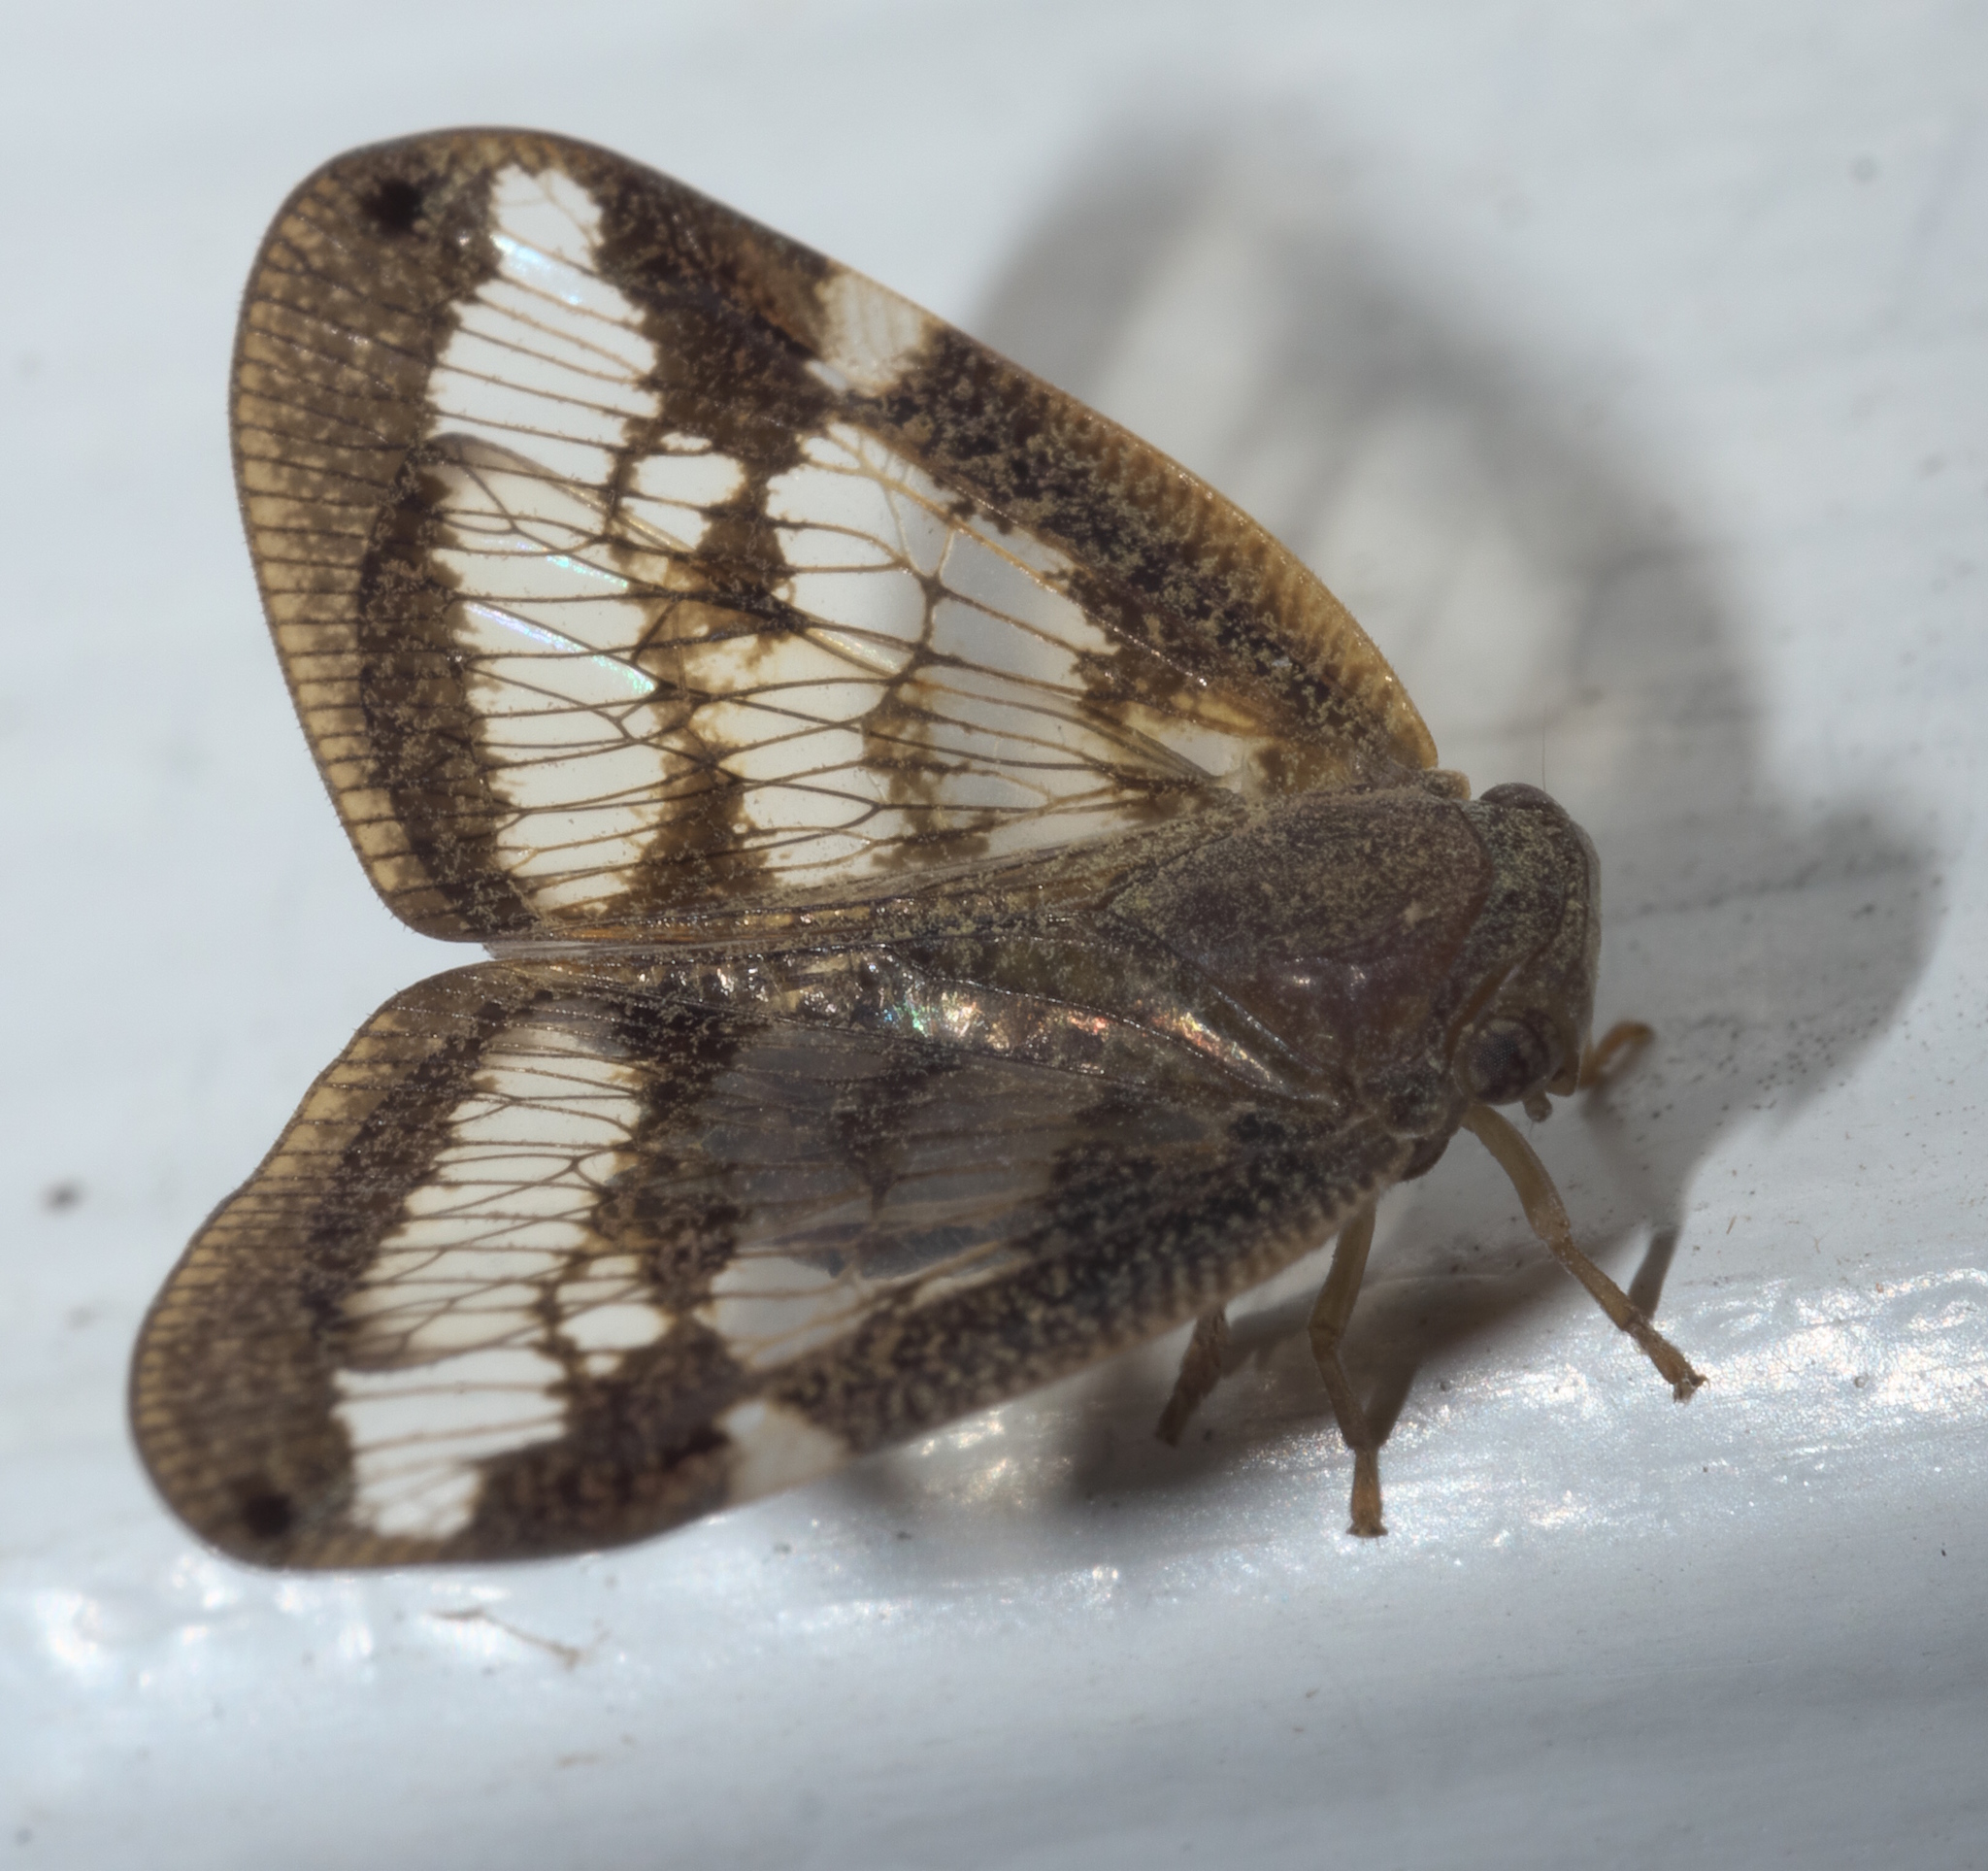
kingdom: Animalia
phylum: Arthropoda
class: Insecta
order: Hemiptera
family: Ricaniidae
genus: Scolypopa
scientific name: Scolypopa australis
